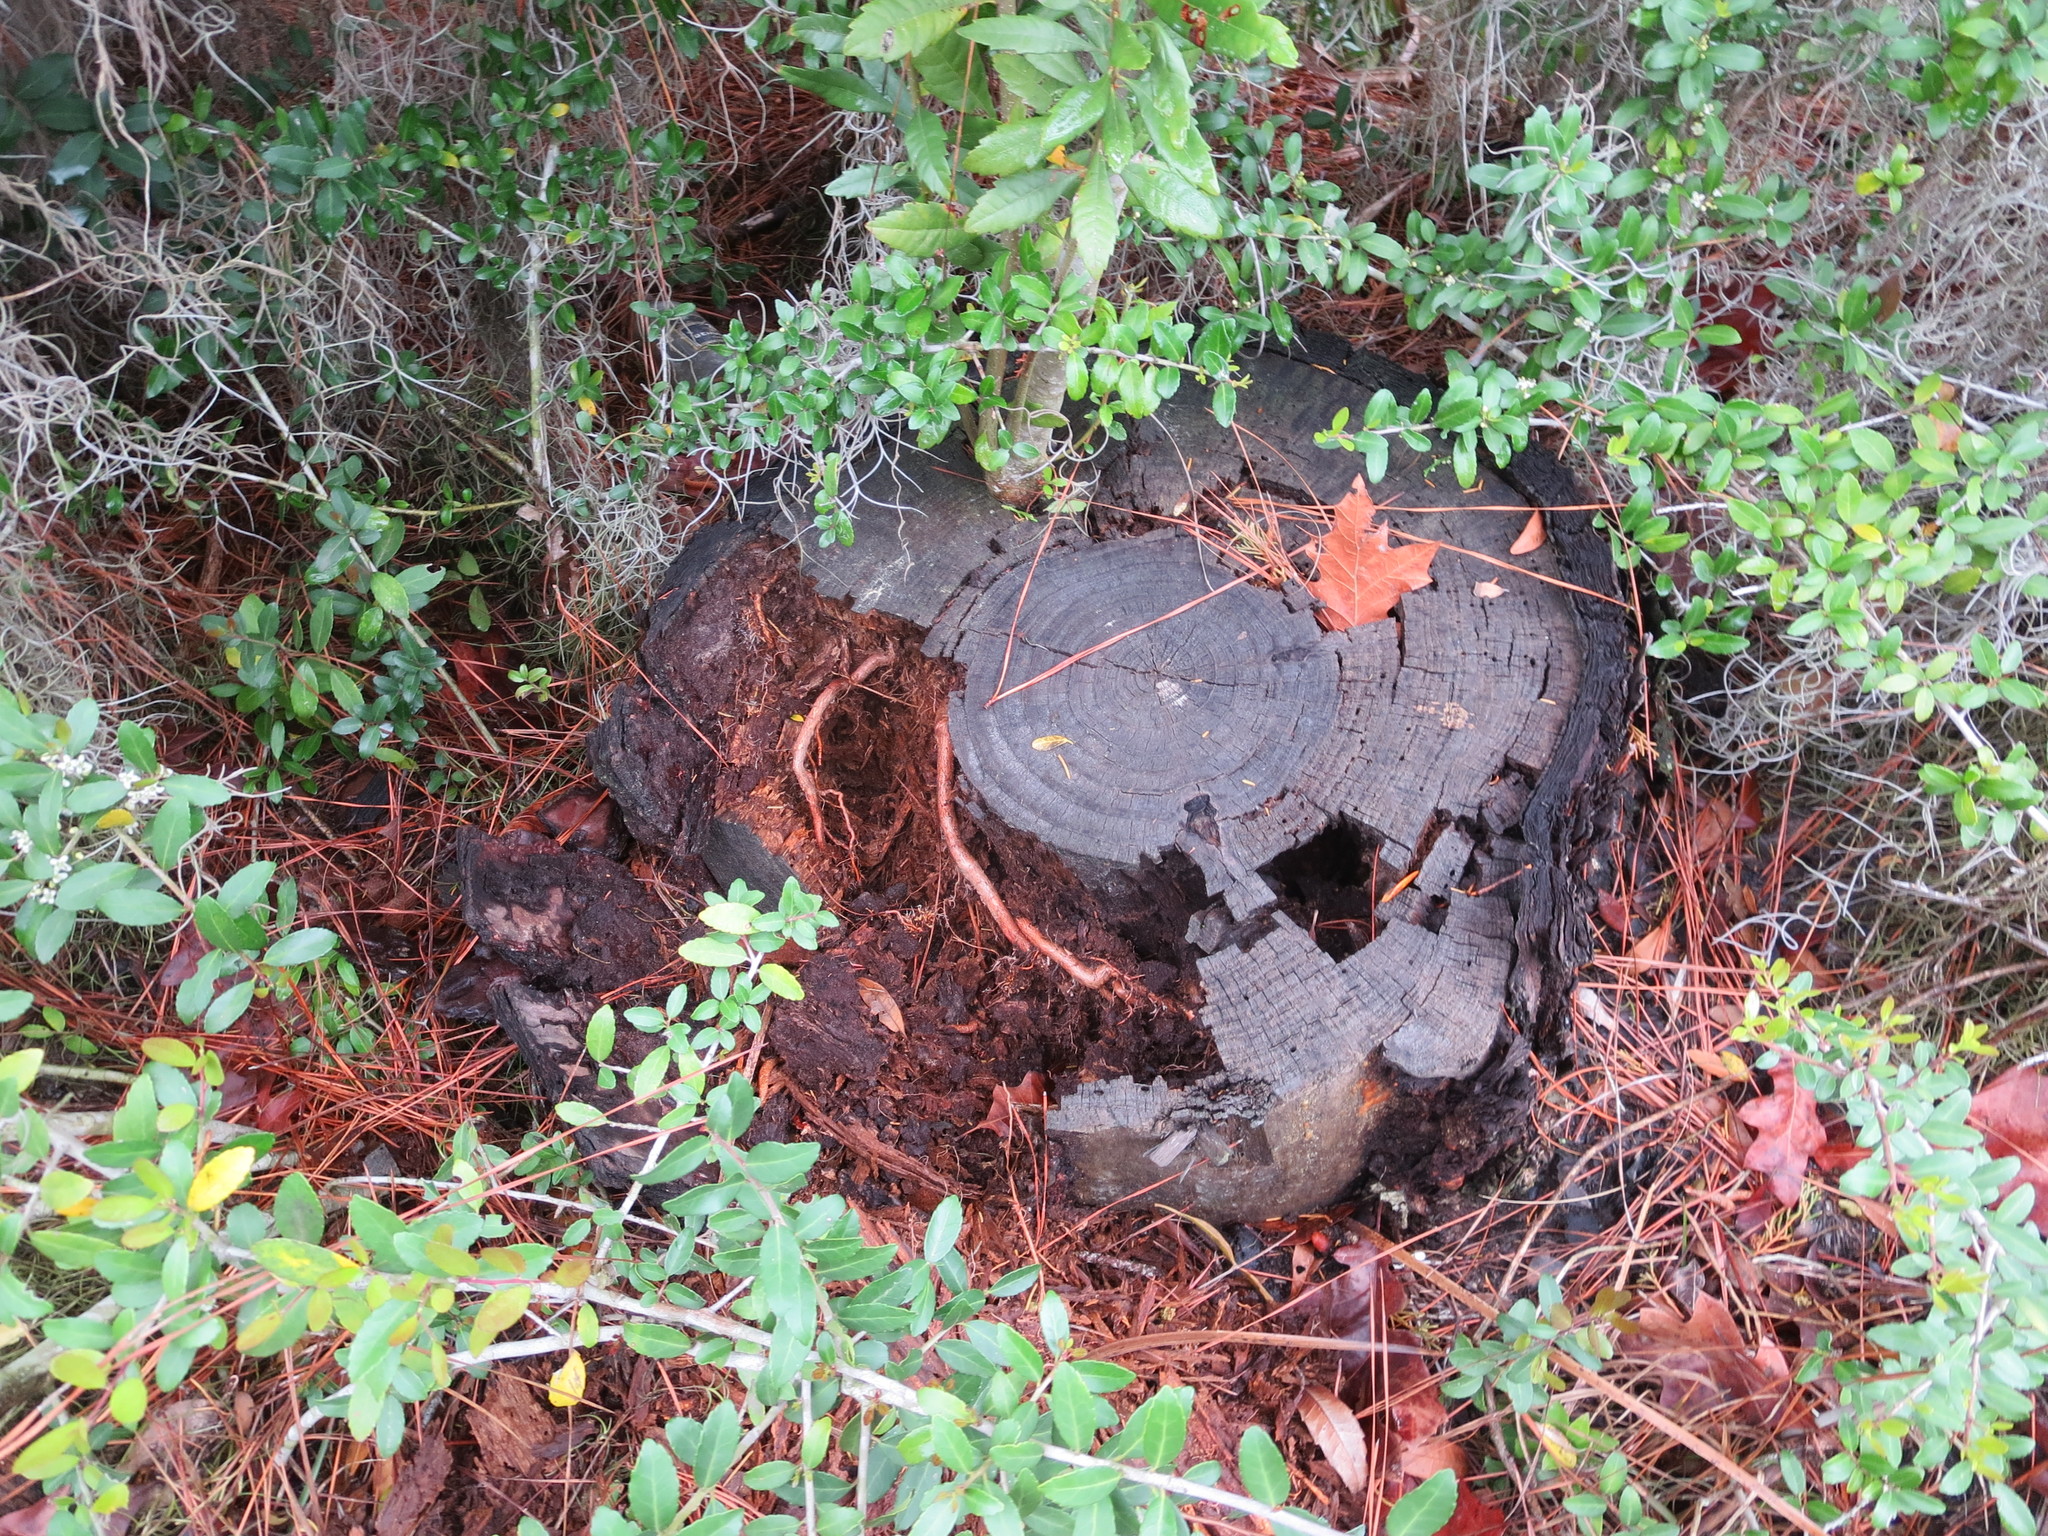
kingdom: Plantae
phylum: Tracheophyta
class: Magnoliopsida
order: Fagales
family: Myricaceae
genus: Morella
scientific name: Morella cerifera
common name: Wax myrtle
